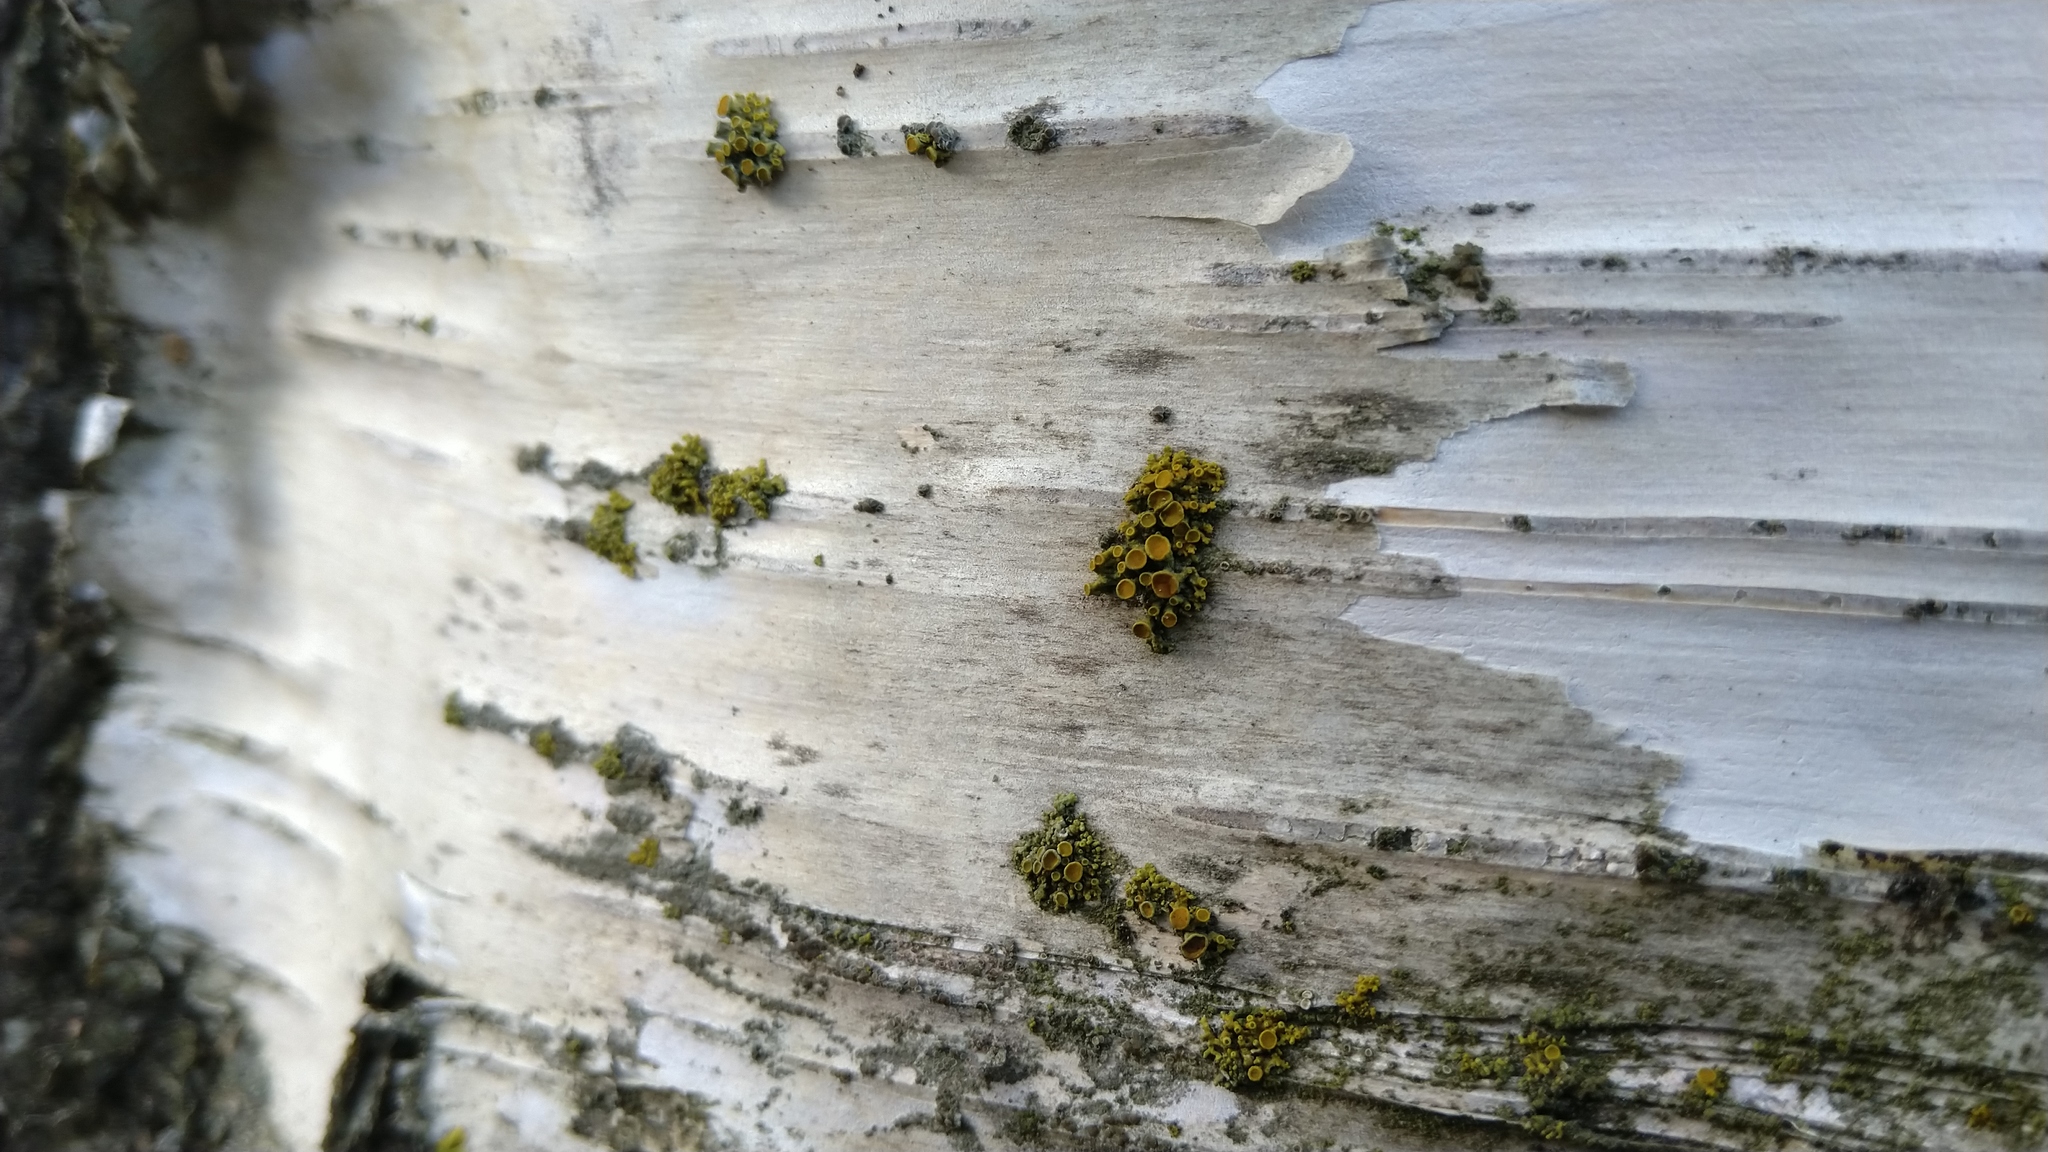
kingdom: Fungi
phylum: Ascomycota
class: Lecanoromycetes
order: Teloschistales
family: Teloschistaceae
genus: Polycauliona
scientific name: Polycauliona polycarpa
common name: Pin-cushion sunburst lichen
